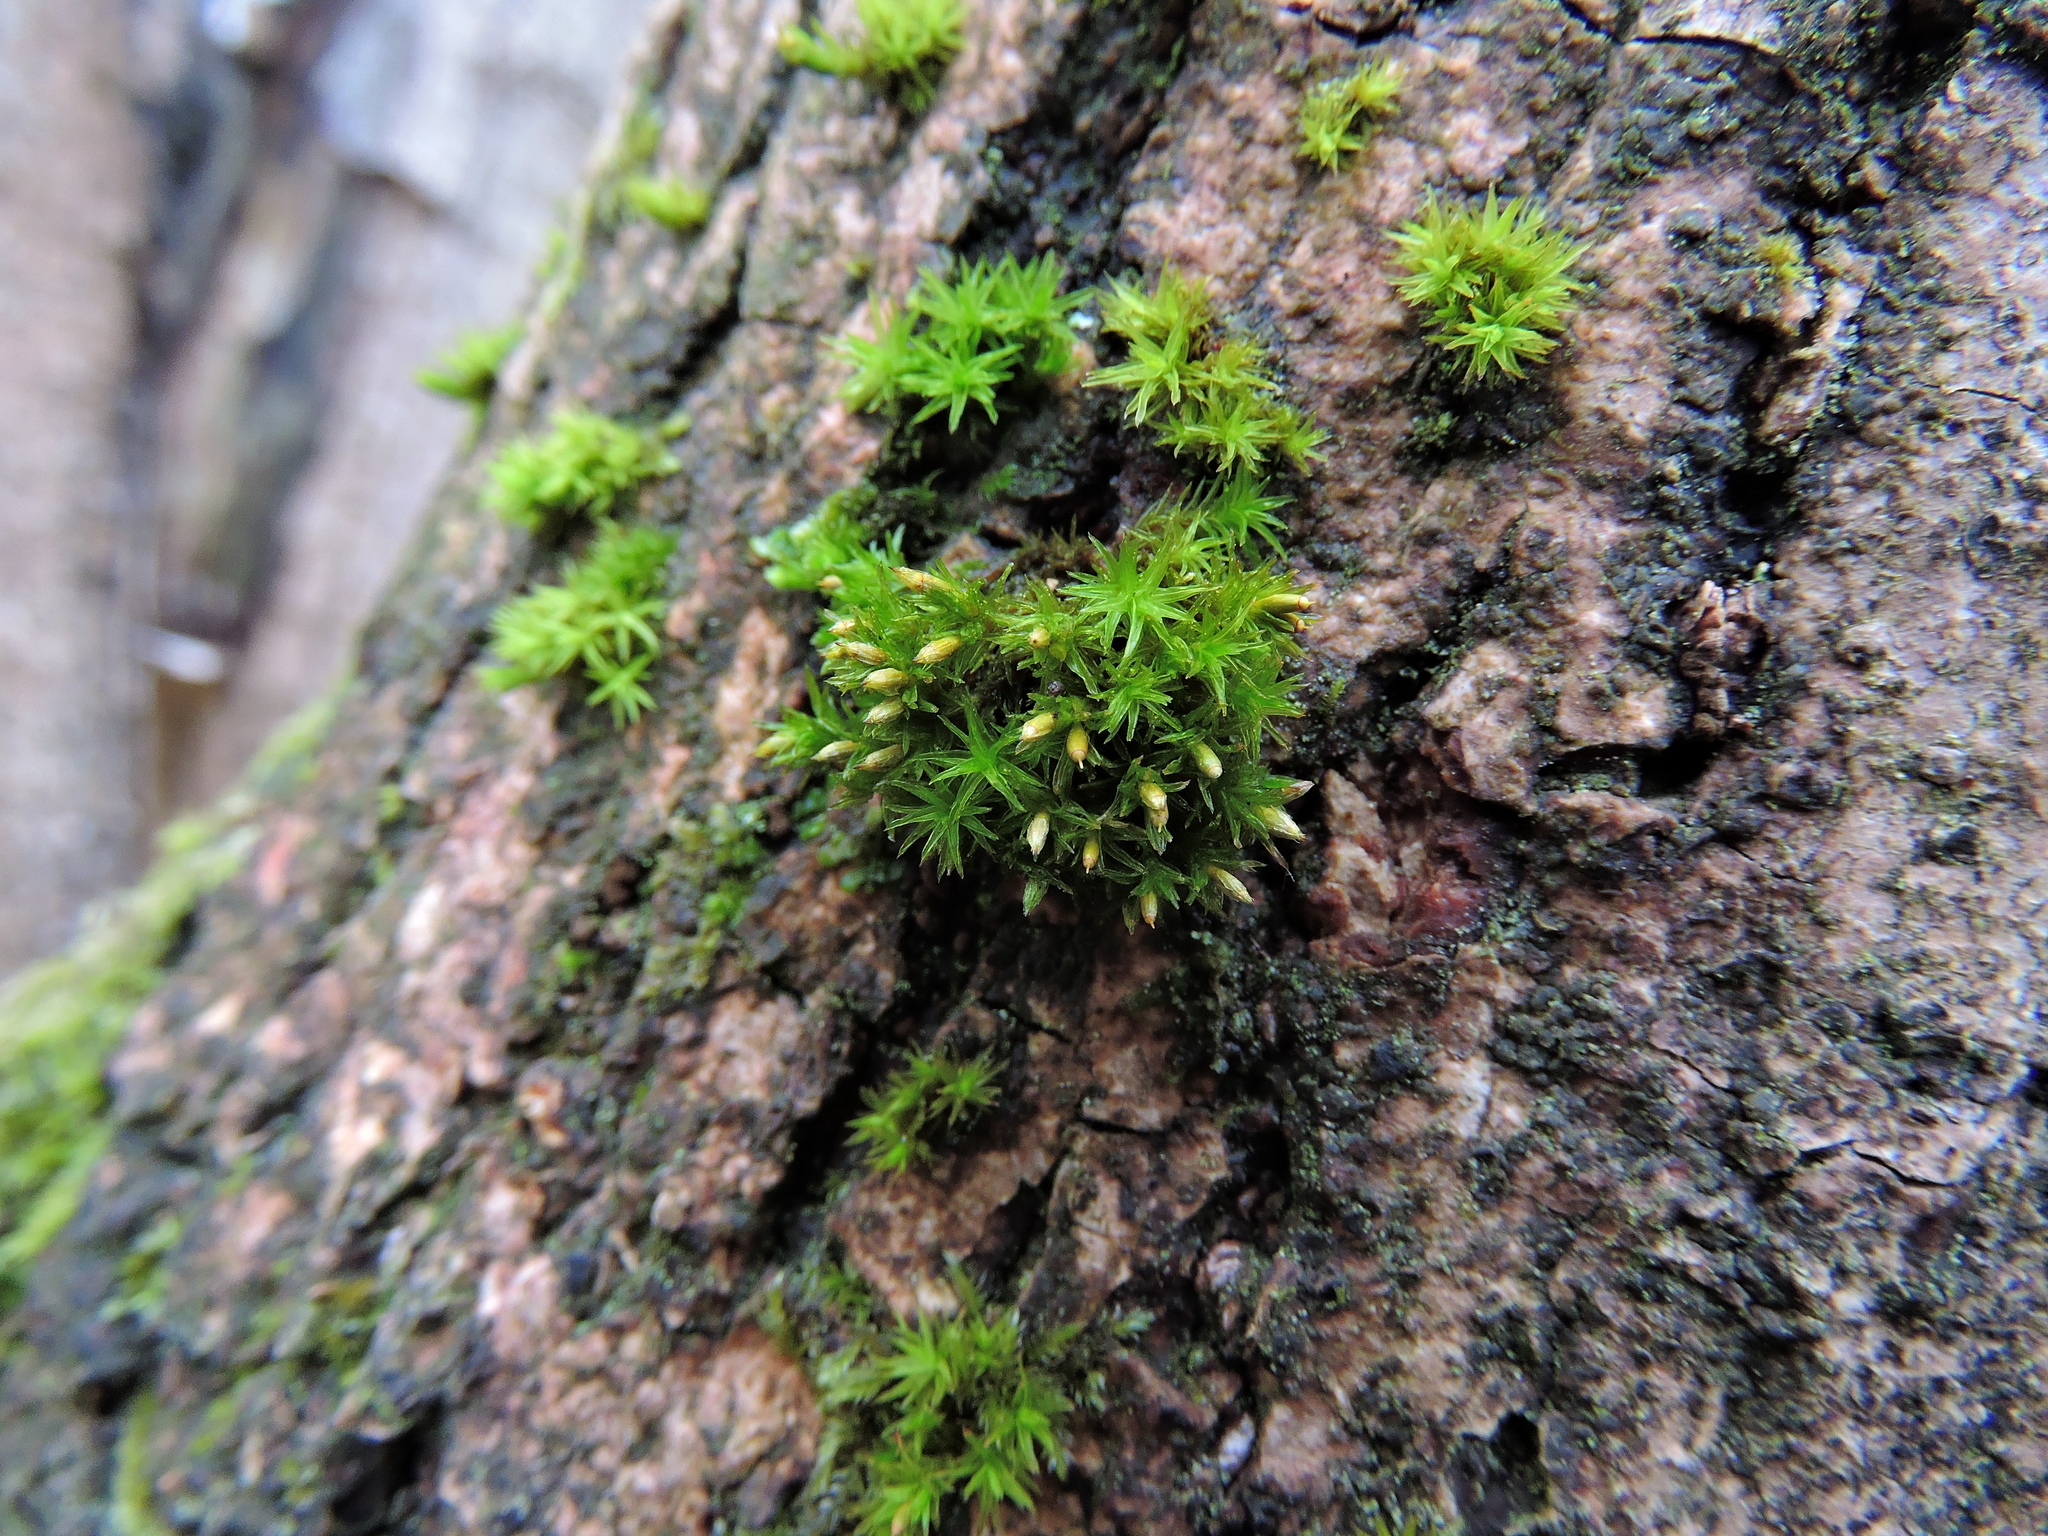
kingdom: Plantae
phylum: Bryophyta
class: Bryopsida
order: Orthotrichales
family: Orthotrichaceae
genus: Orthotrichum
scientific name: Orthotrichum stramineum
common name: Straw bristle-moss
